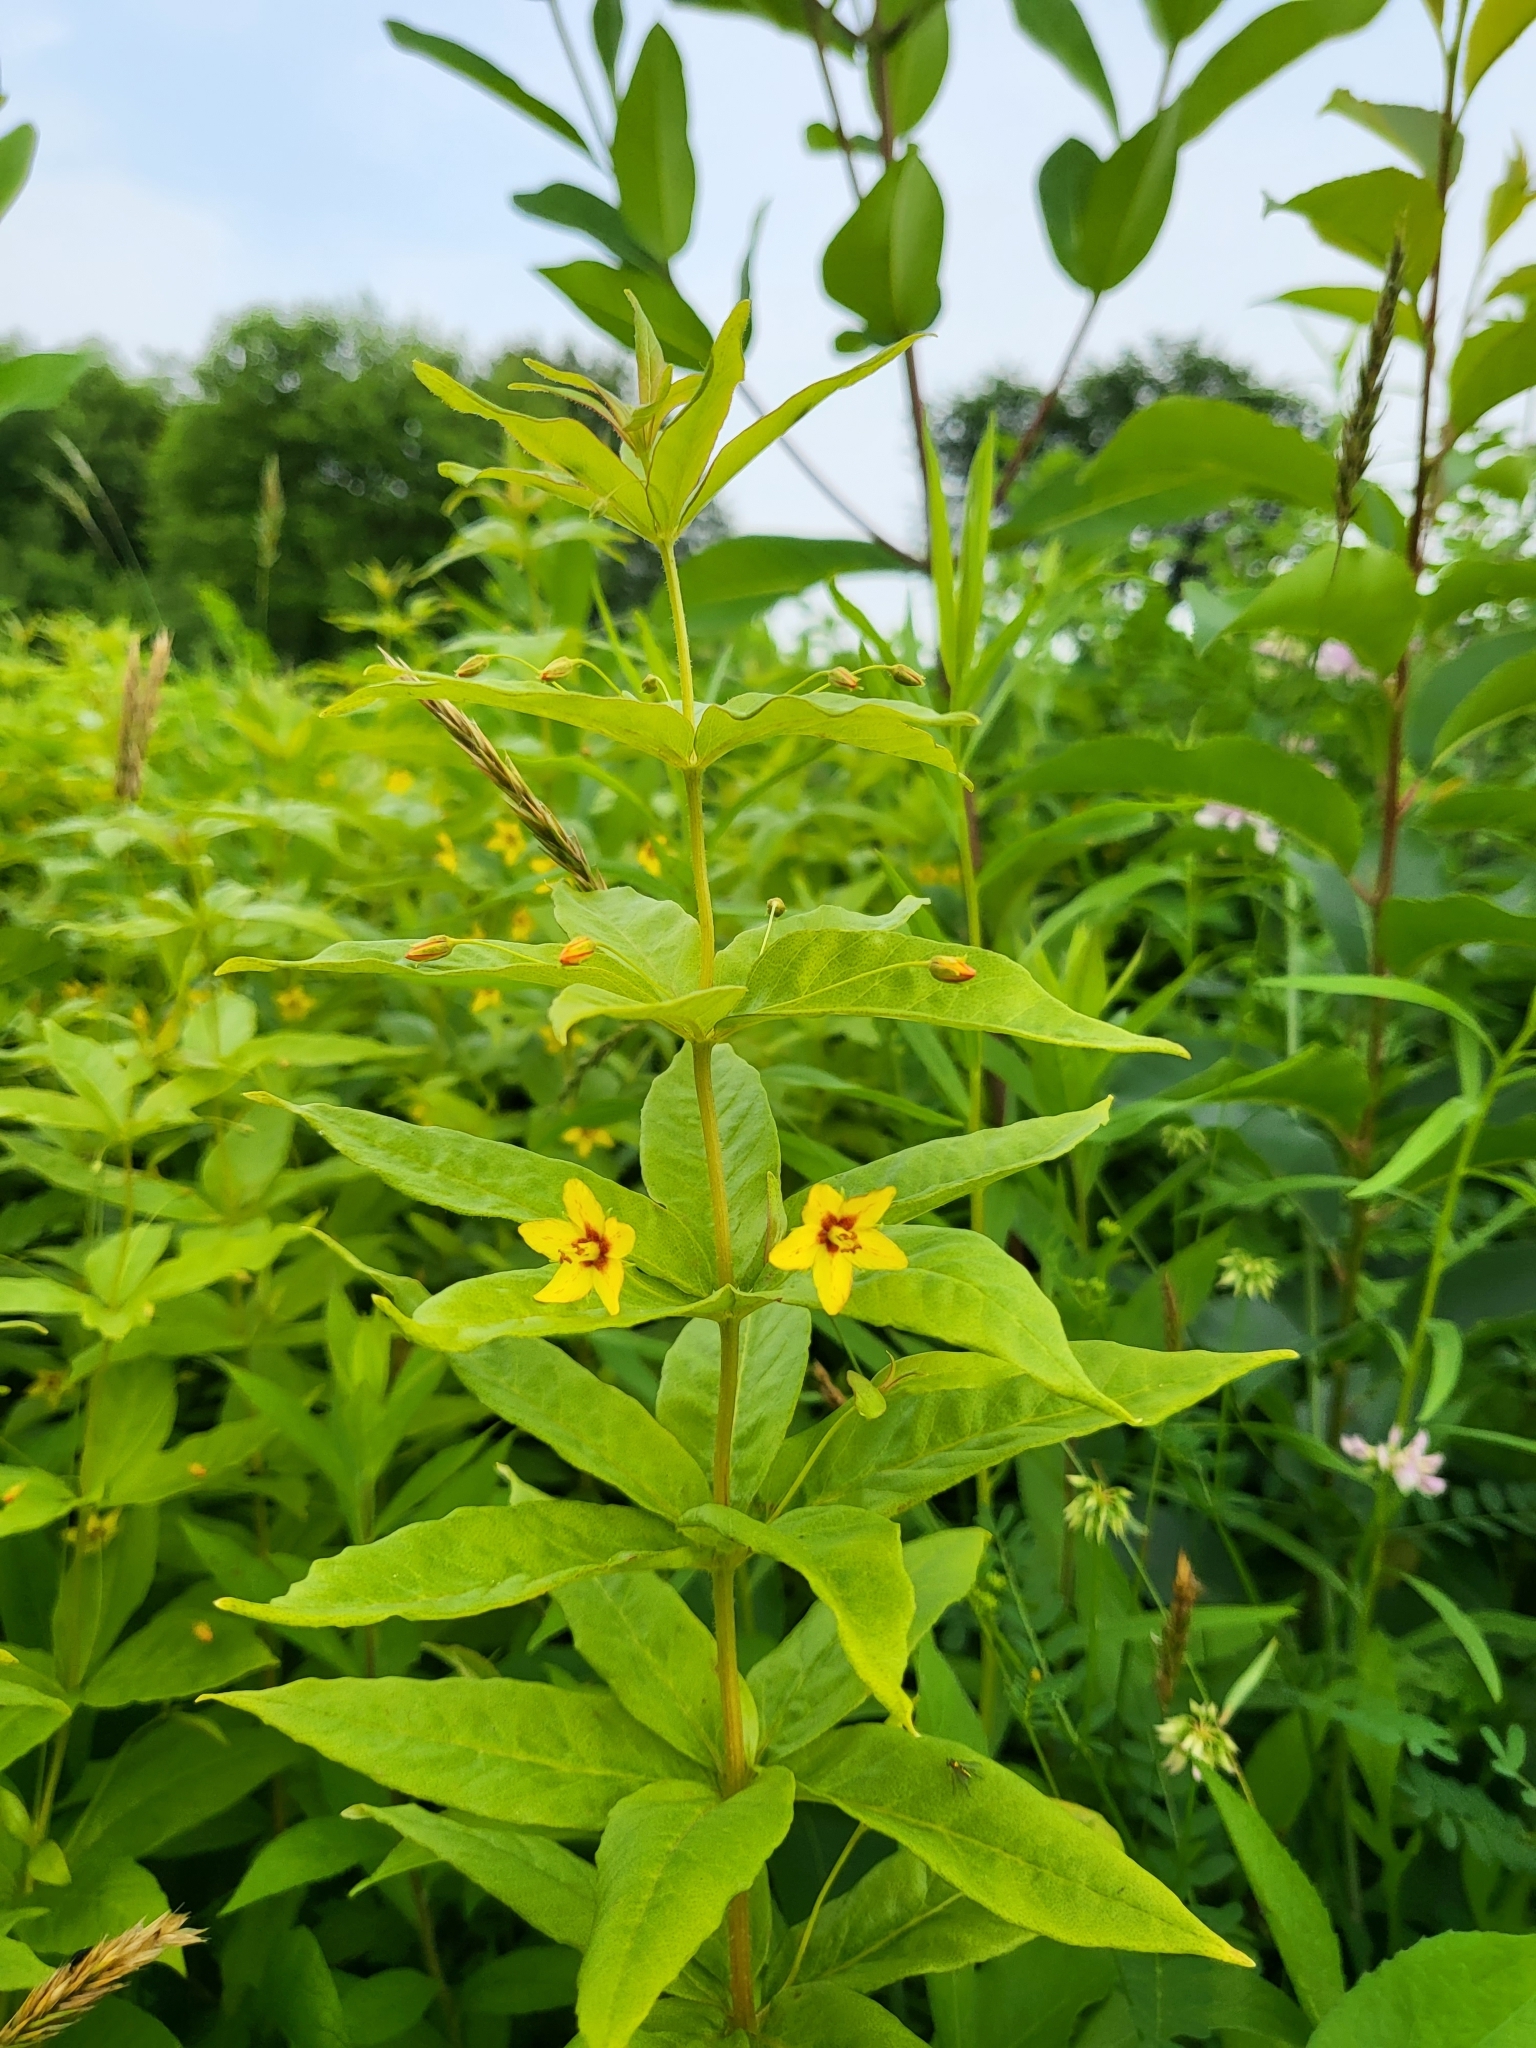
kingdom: Plantae
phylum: Tracheophyta
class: Magnoliopsida
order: Ericales
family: Primulaceae
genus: Lysimachia
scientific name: Lysimachia quadrifolia
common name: Whorled loosestrife
